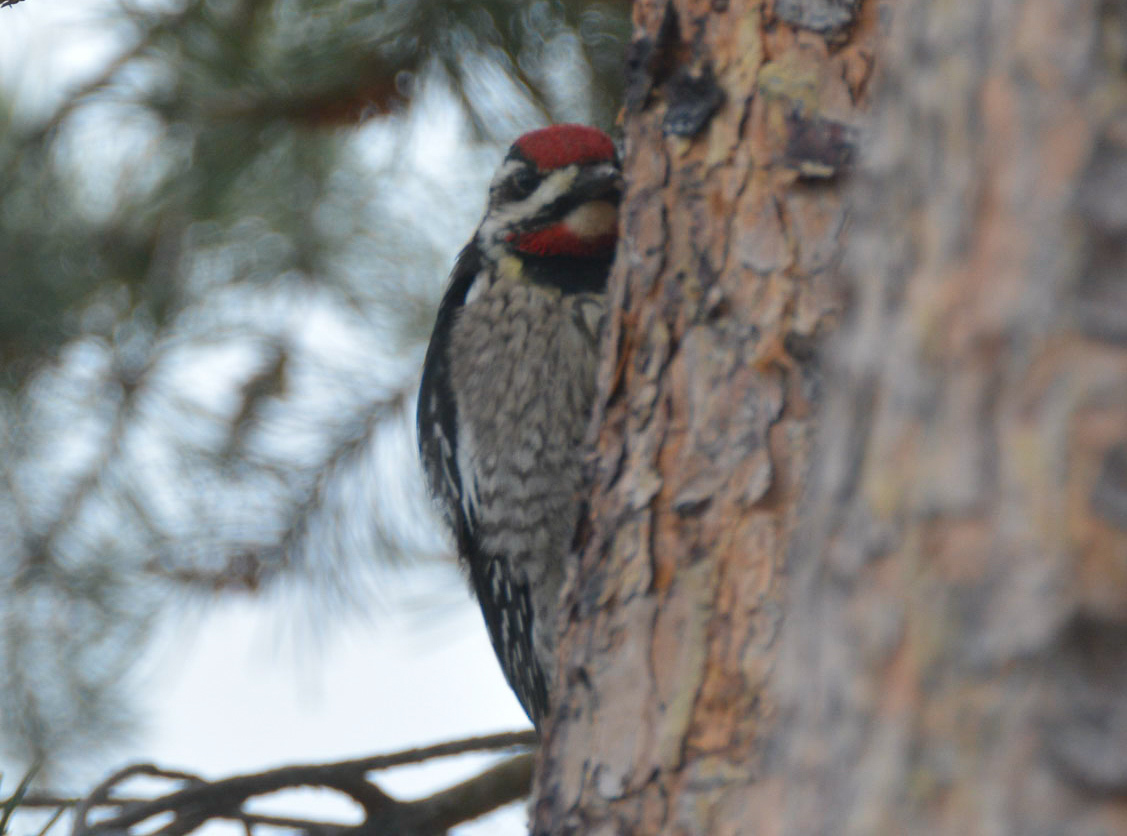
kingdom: Animalia
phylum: Chordata
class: Aves
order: Piciformes
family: Picidae
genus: Sphyrapicus
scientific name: Sphyrapicus nuchalis
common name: Red-naped sapsucker
